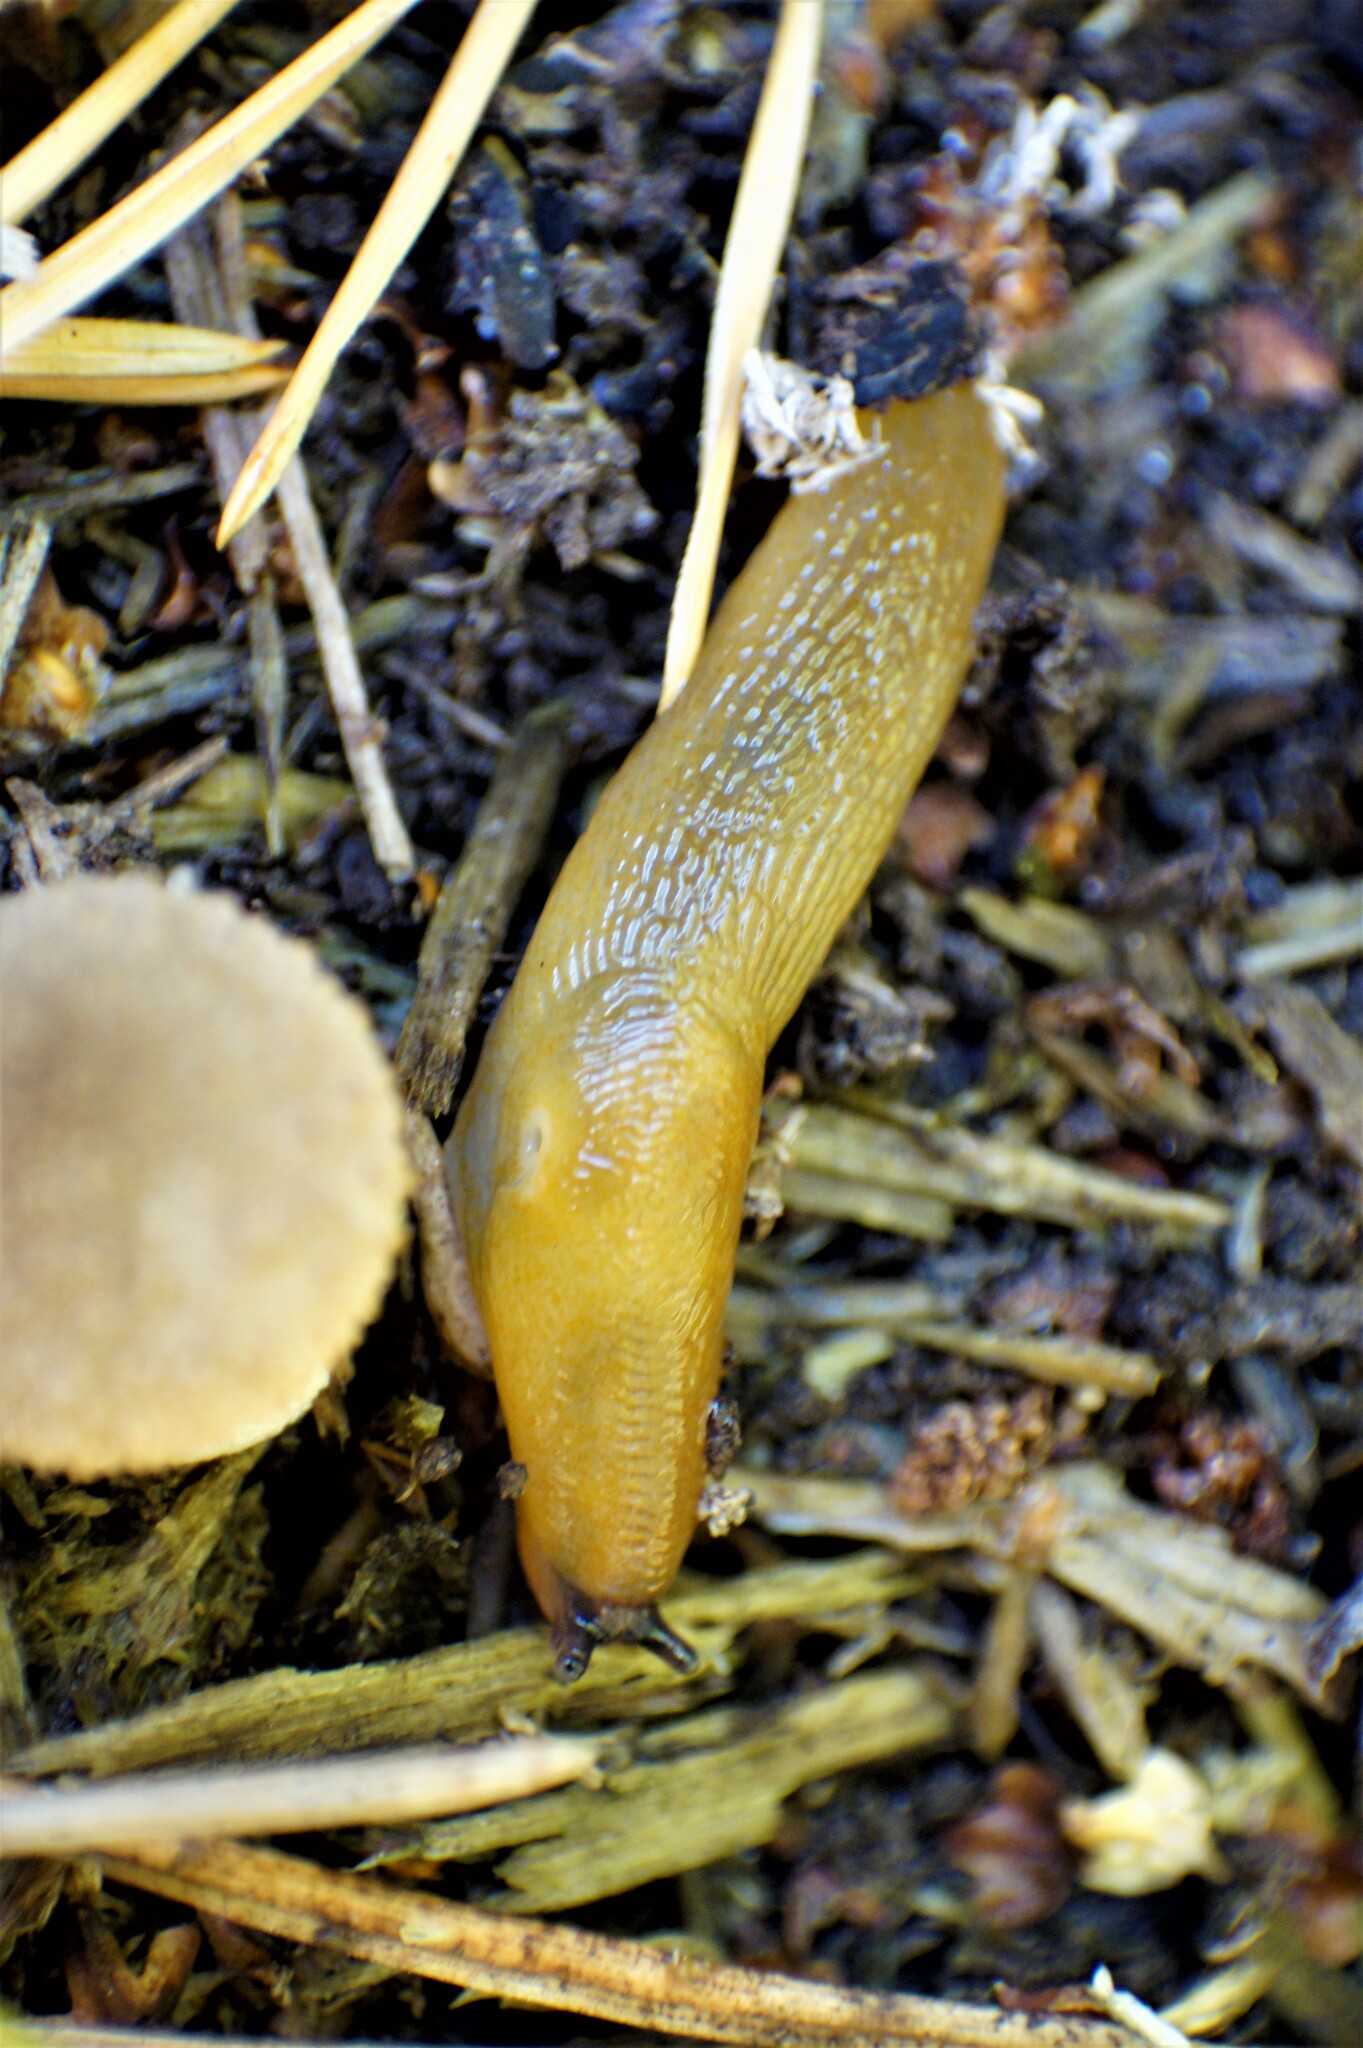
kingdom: Animalia
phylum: Mollusca
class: Gastropoda
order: Stylommatophora
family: Limacidae
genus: Malacolimax
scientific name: Malacolimax tenellus
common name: Lemon slug
